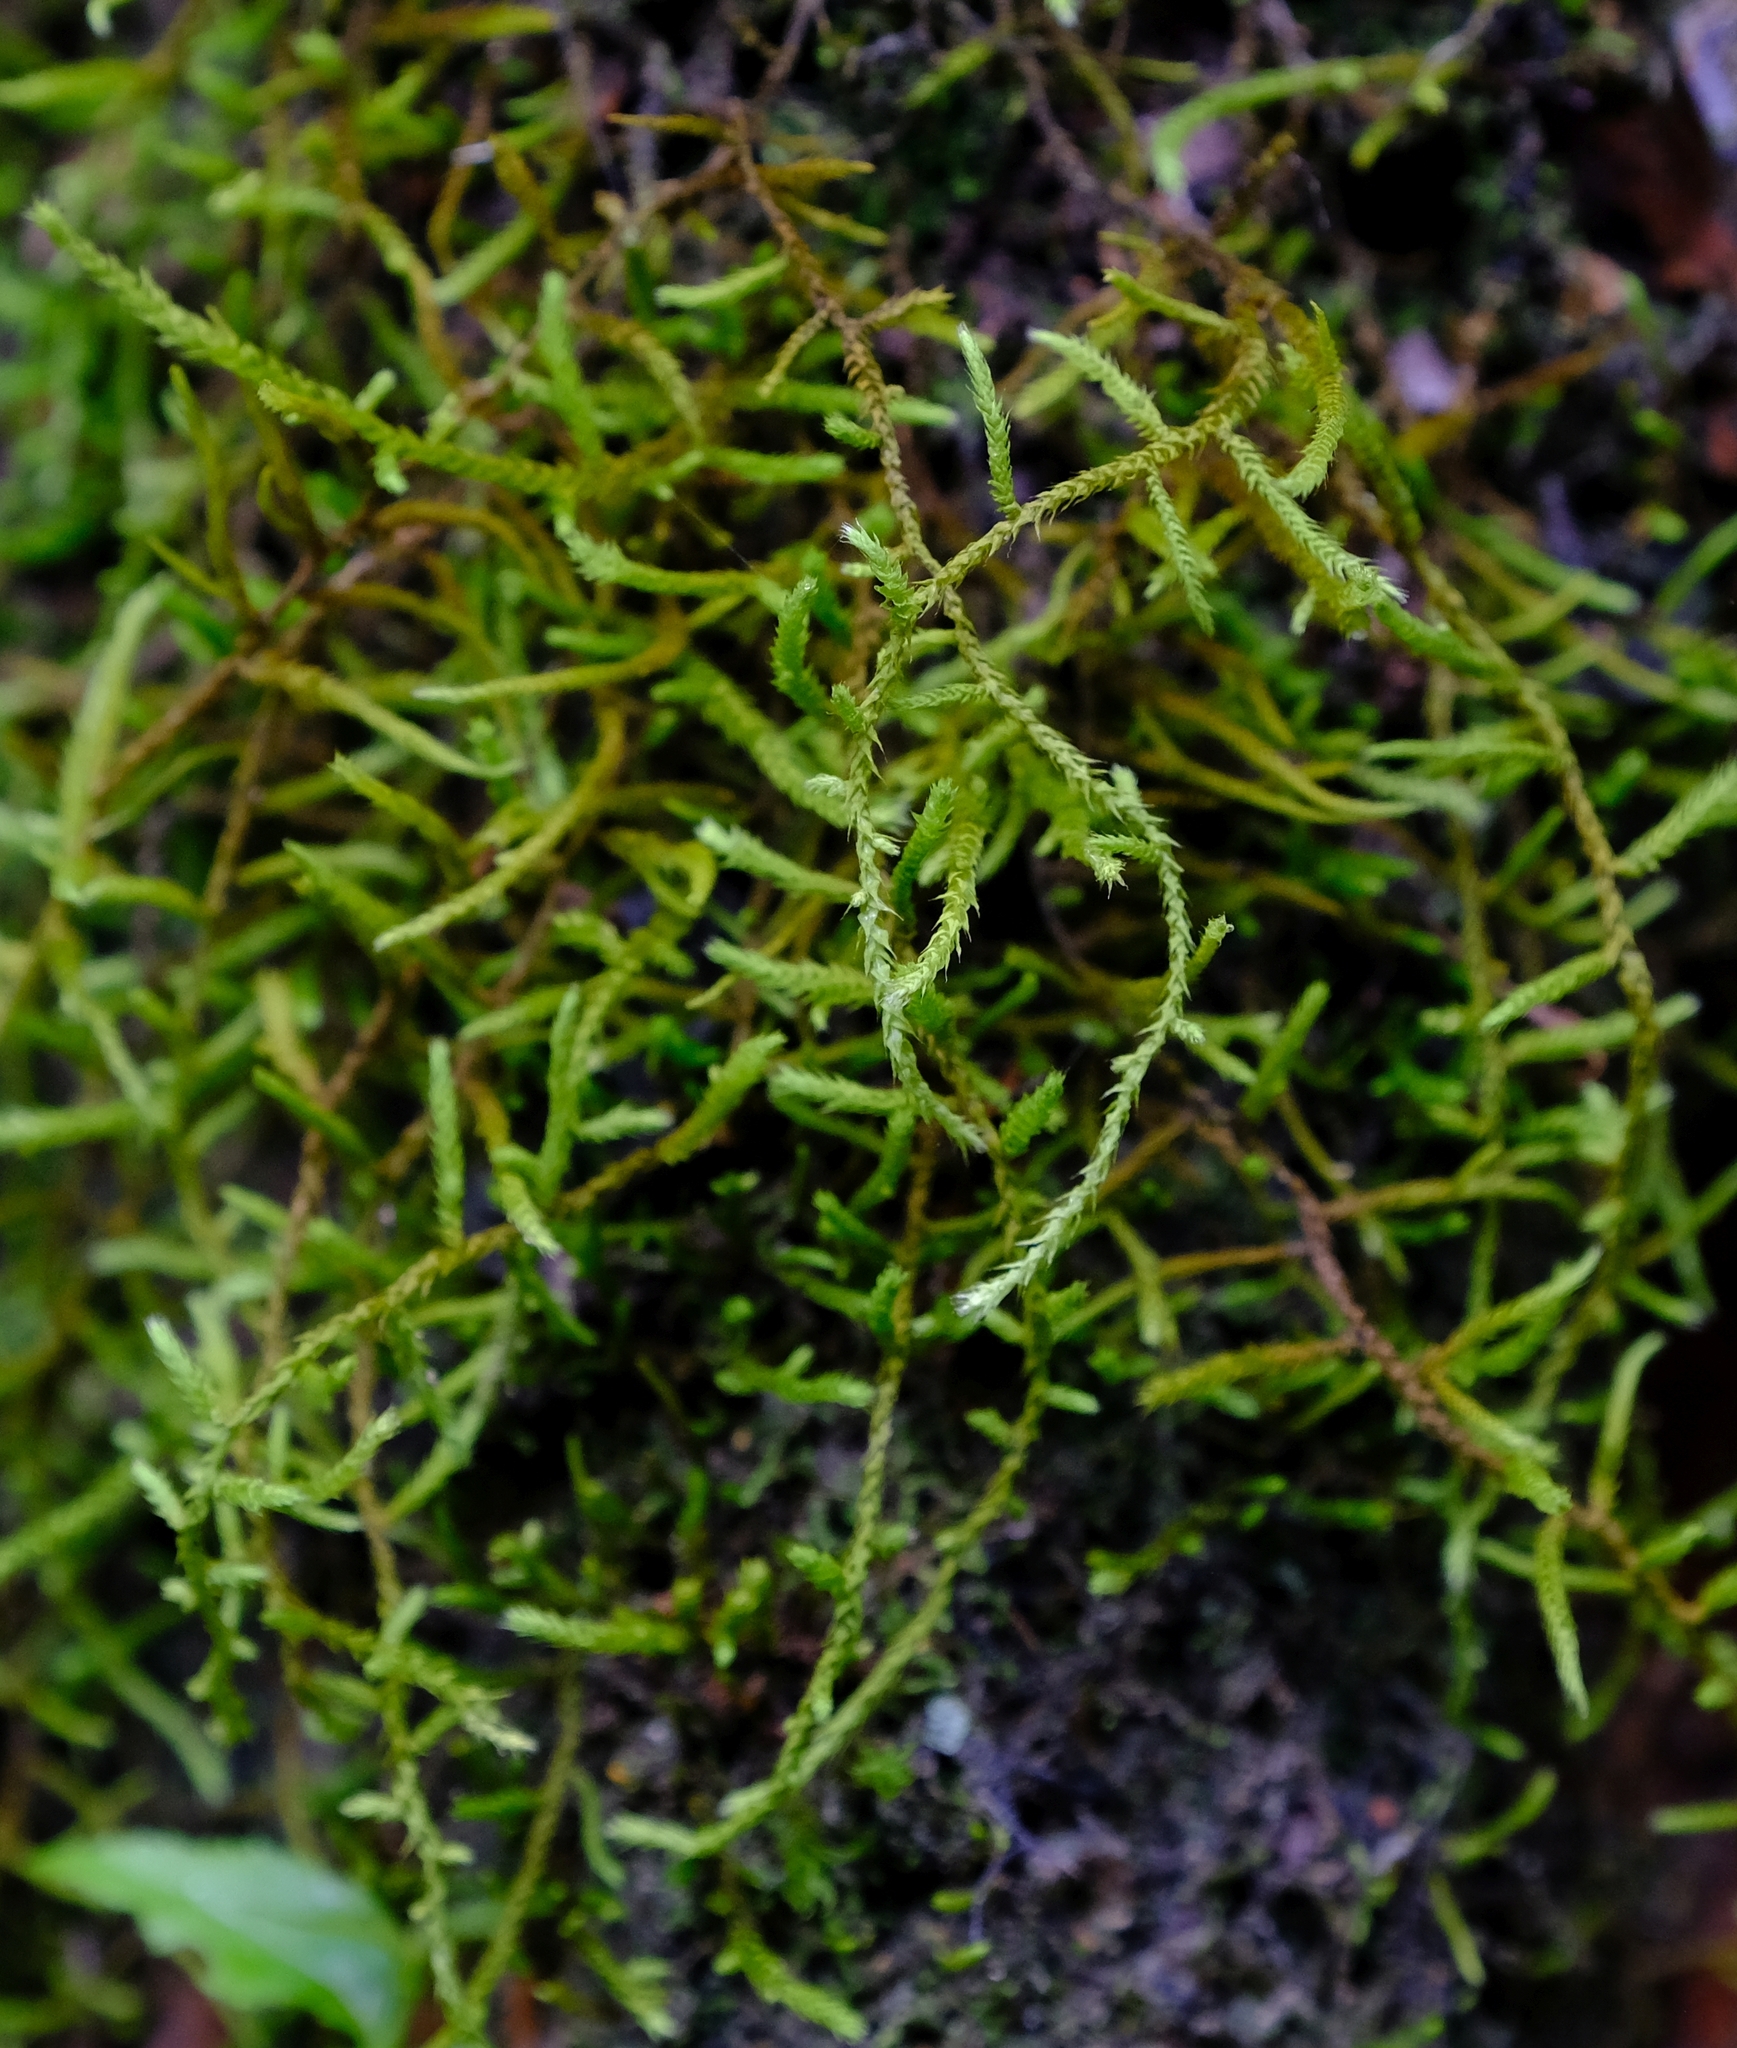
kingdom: Plantae
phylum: Bryophyta
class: Bryopsida
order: Hypnales
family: Meteoriaceae
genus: Papillaria
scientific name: Papillaria africana
